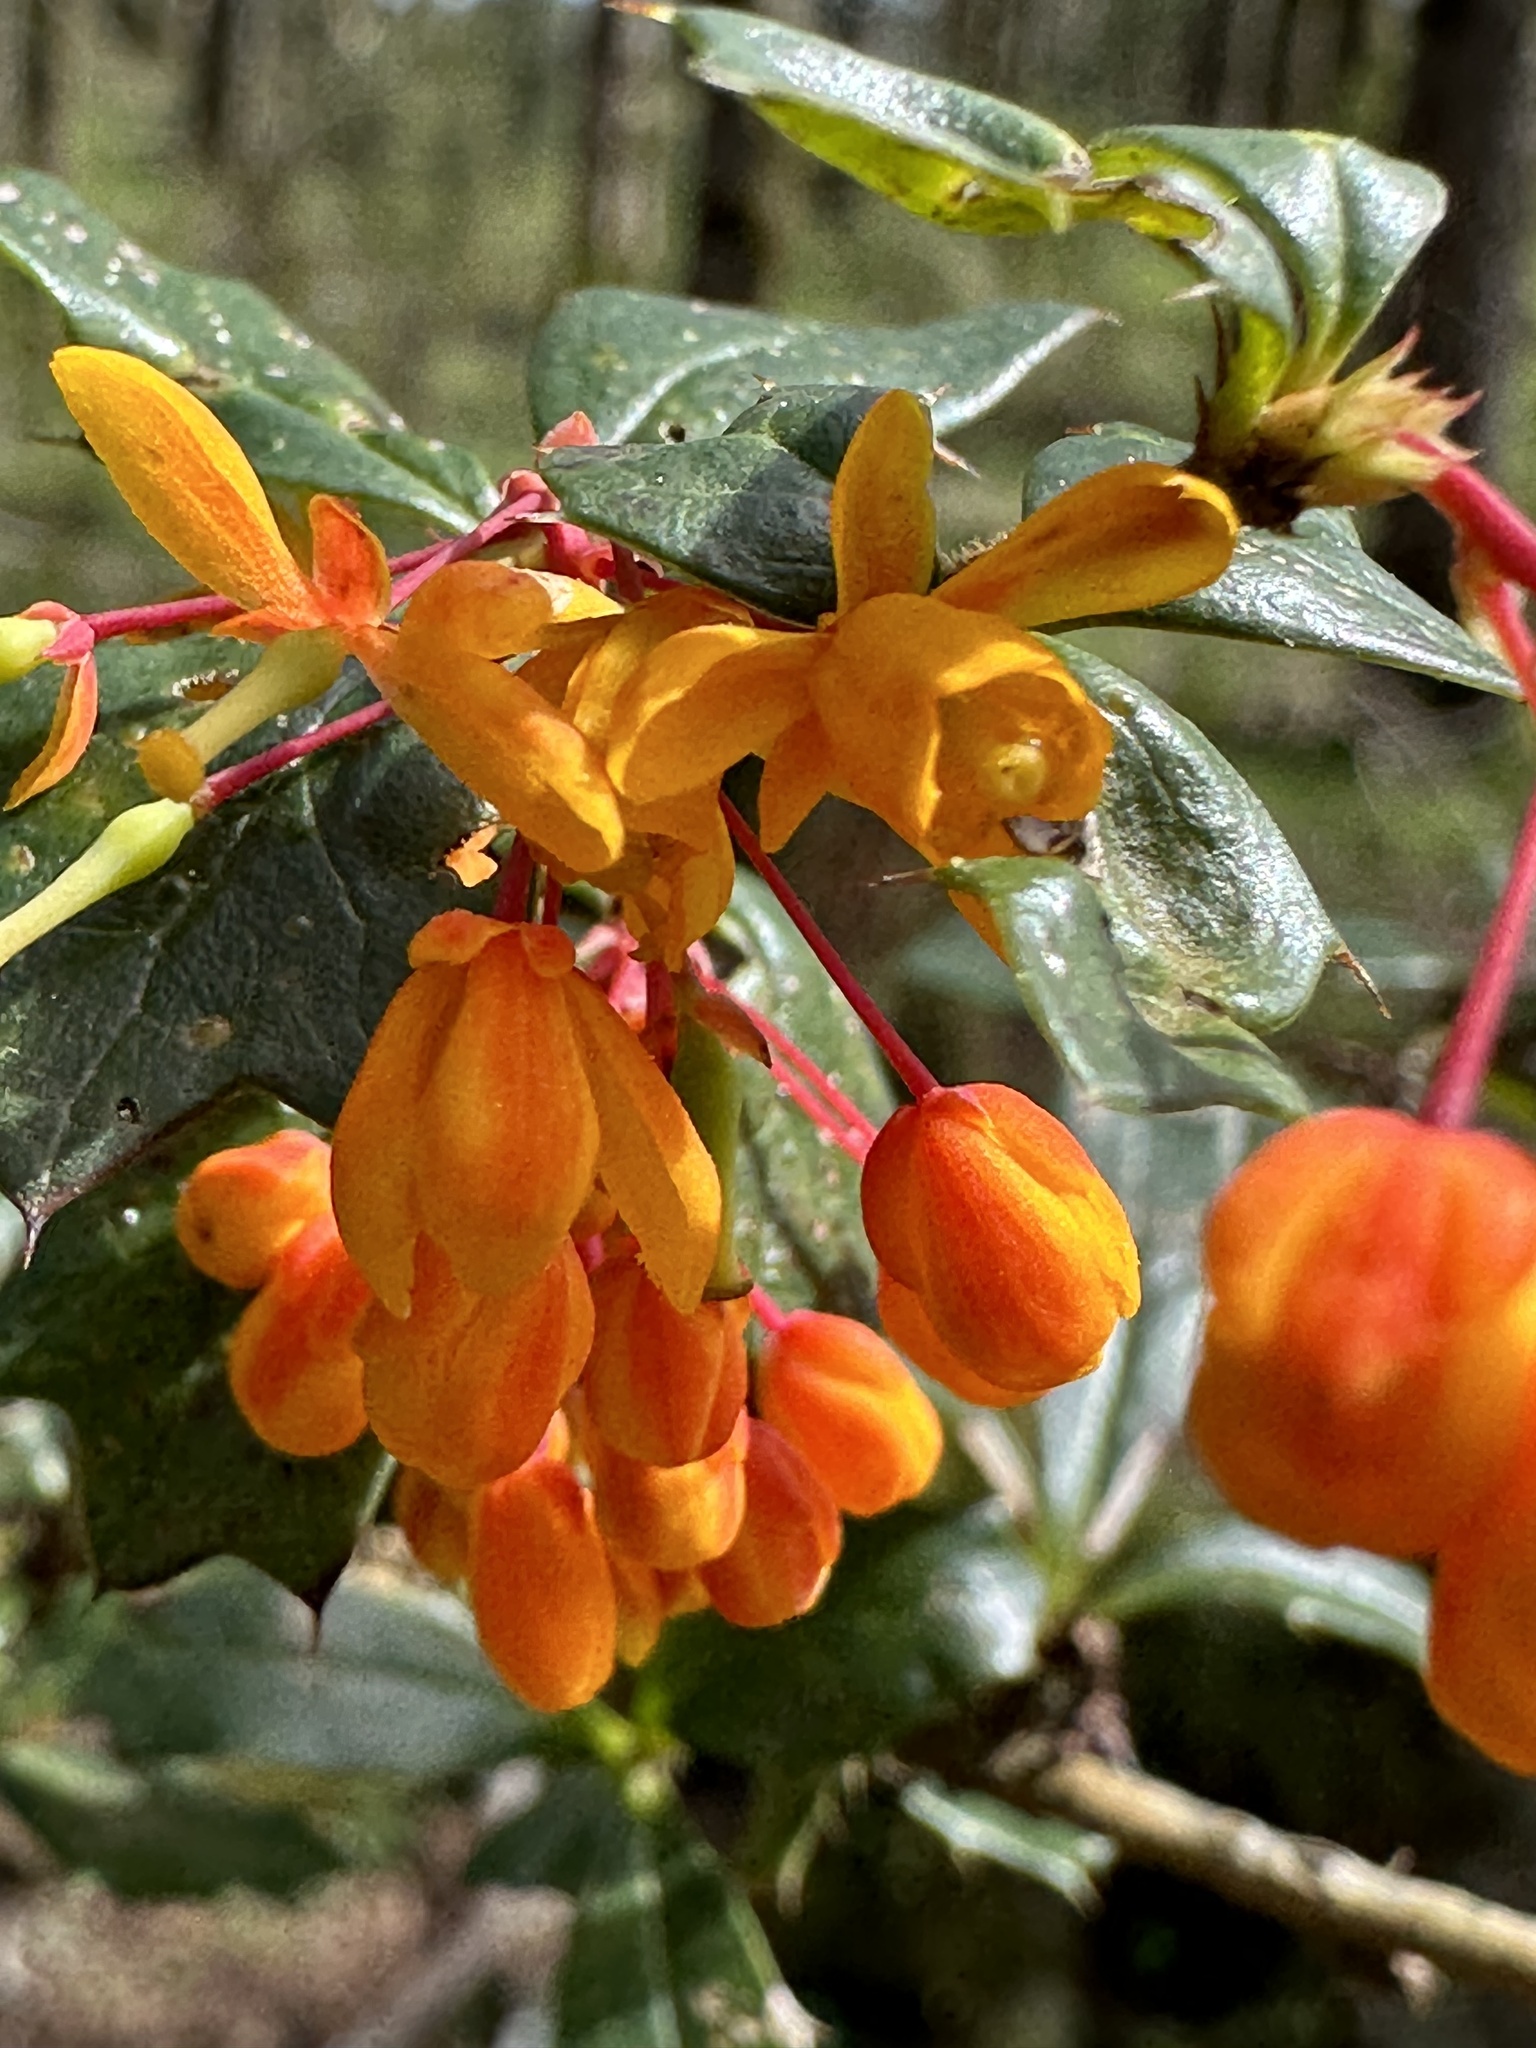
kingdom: Plantae
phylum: Tracheophyta
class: Magnoliopsida
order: Ranunculales
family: Berberidaceae
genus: Berberis
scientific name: Berberis darwinii
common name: Darwin's barberry
